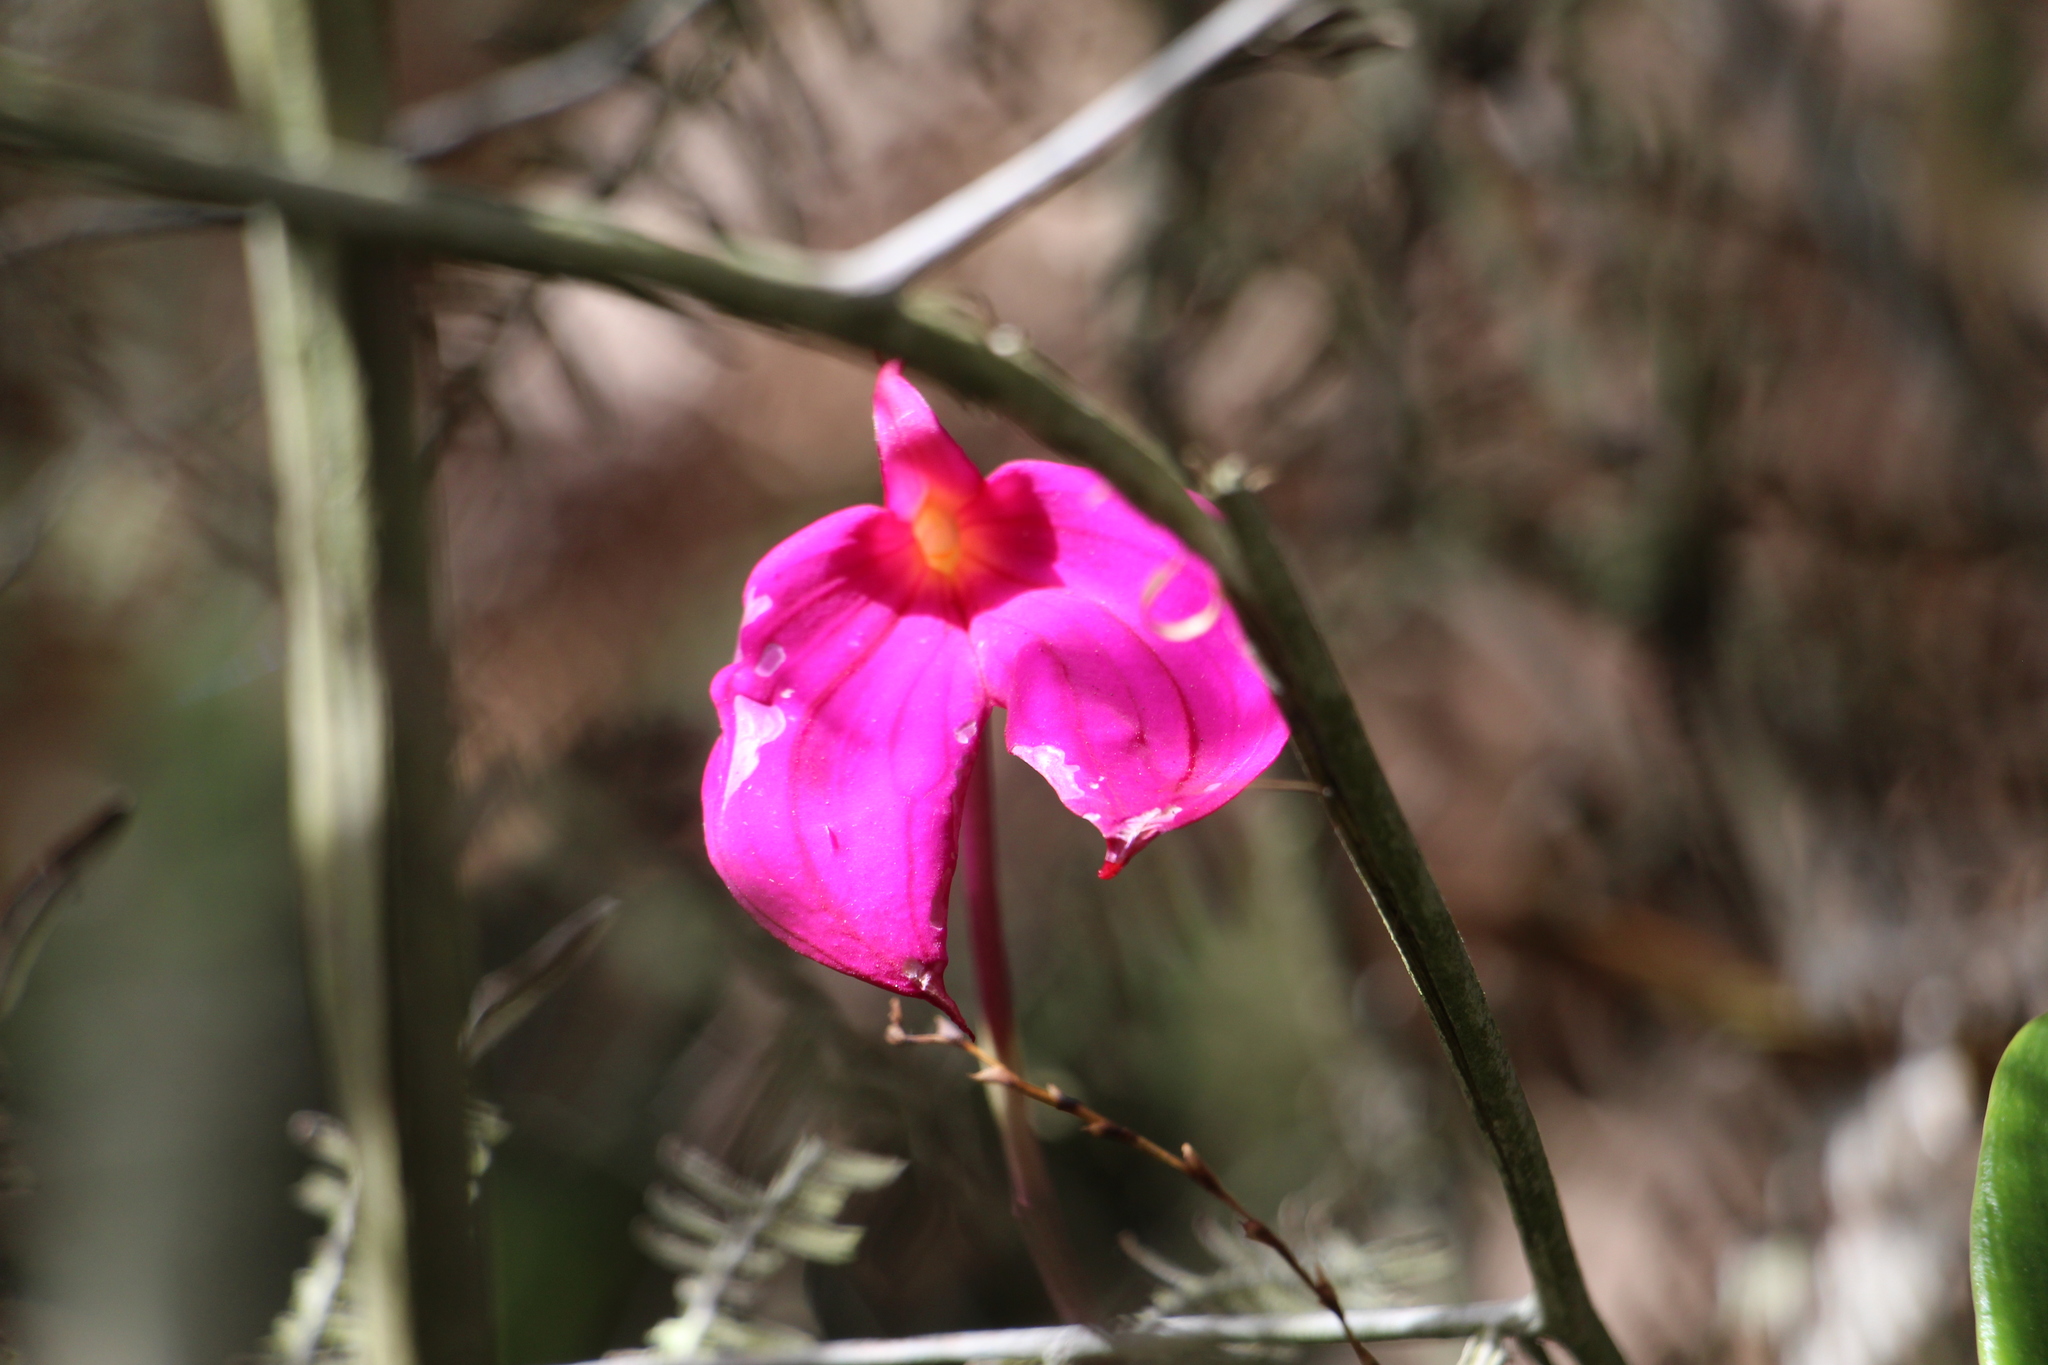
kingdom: Plantae
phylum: Tracheophyta
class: Liliopsida
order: Asparagales
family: Orchidaceae
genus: Masdevallia
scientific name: Masdevallia coccinea
